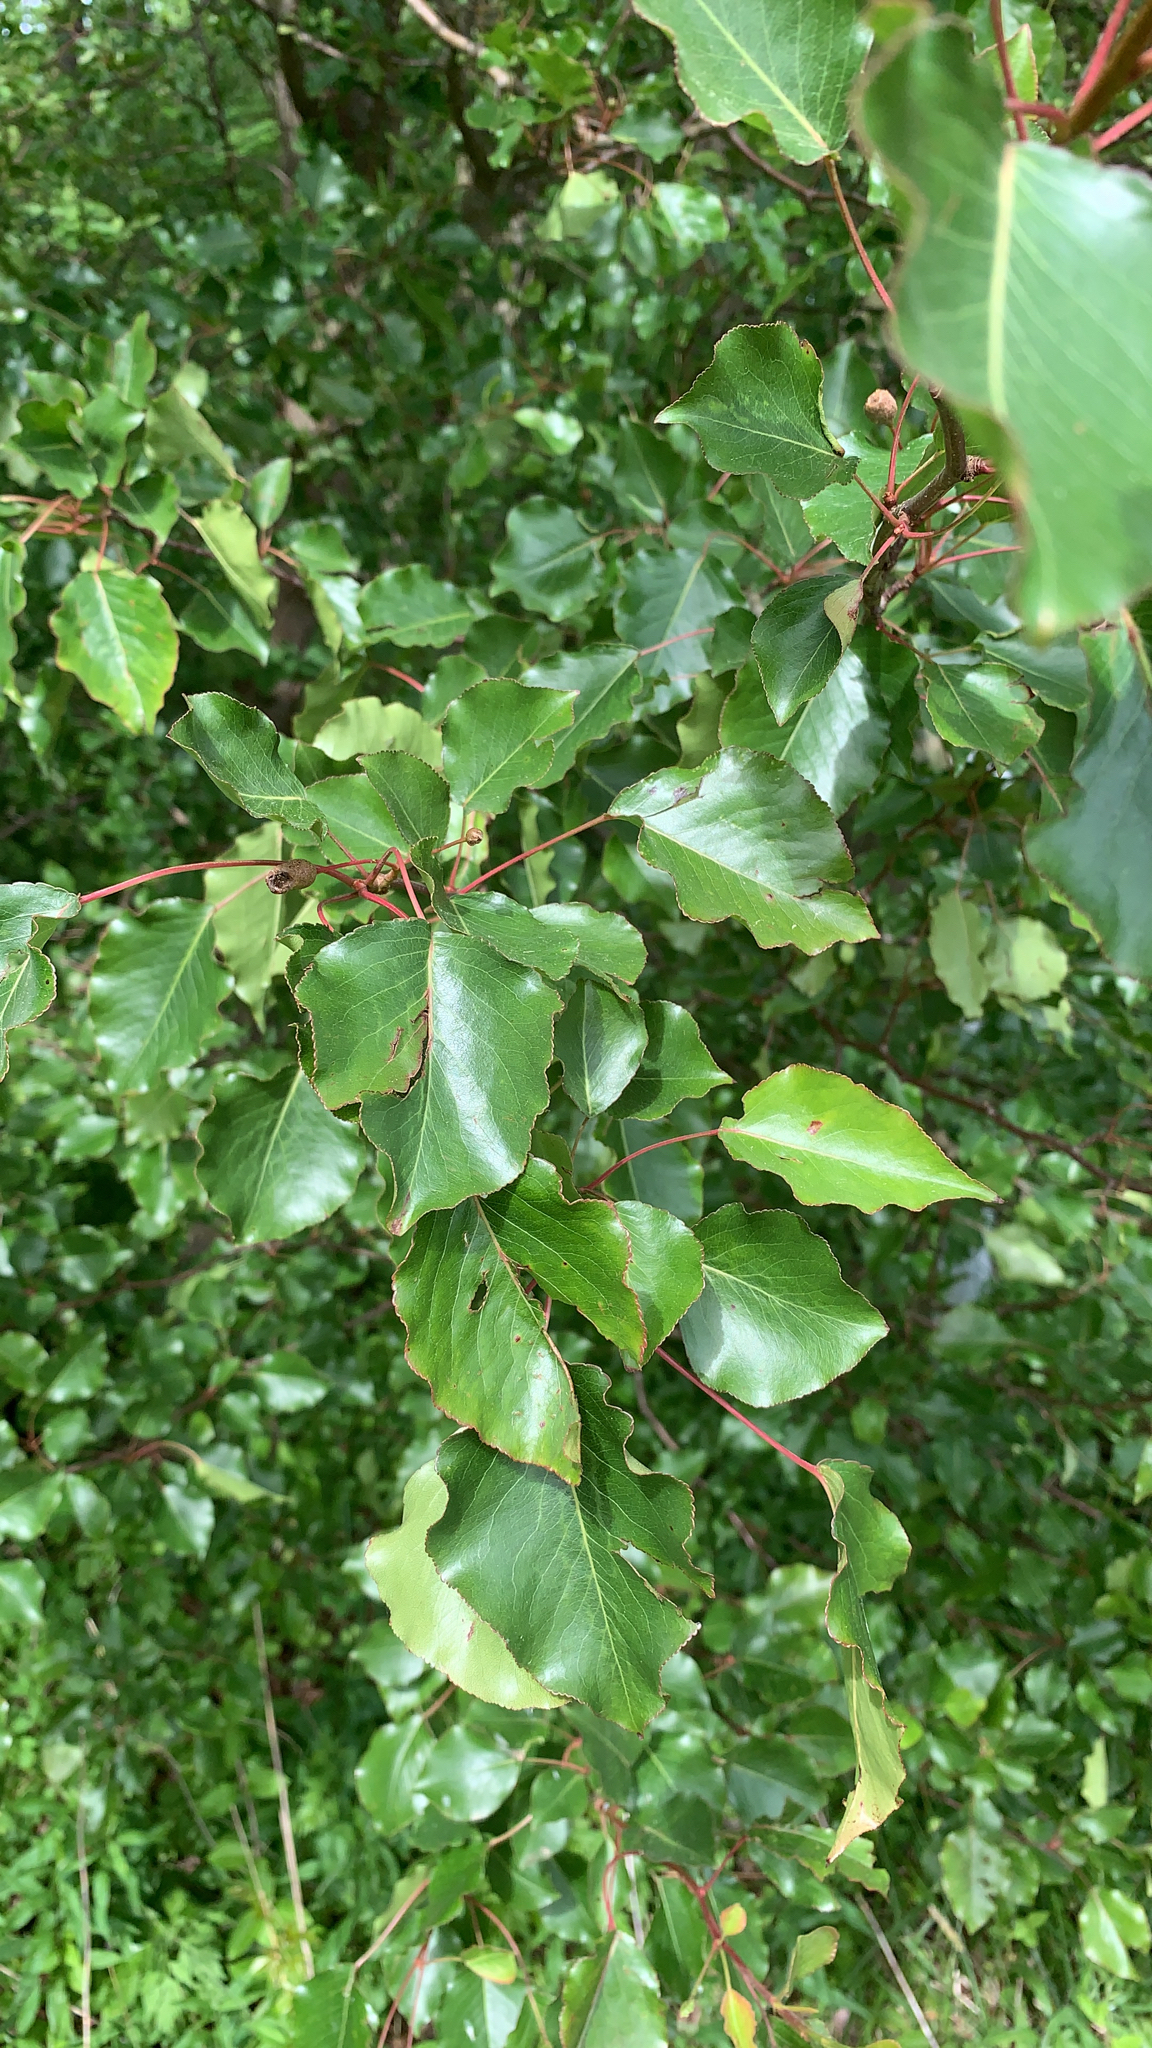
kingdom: Plantae
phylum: Tracheophyta
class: Magnoliopsida
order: Rosales
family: Rosaceae
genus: Pyrus
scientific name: Pyrus calleryana
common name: Callery pear
